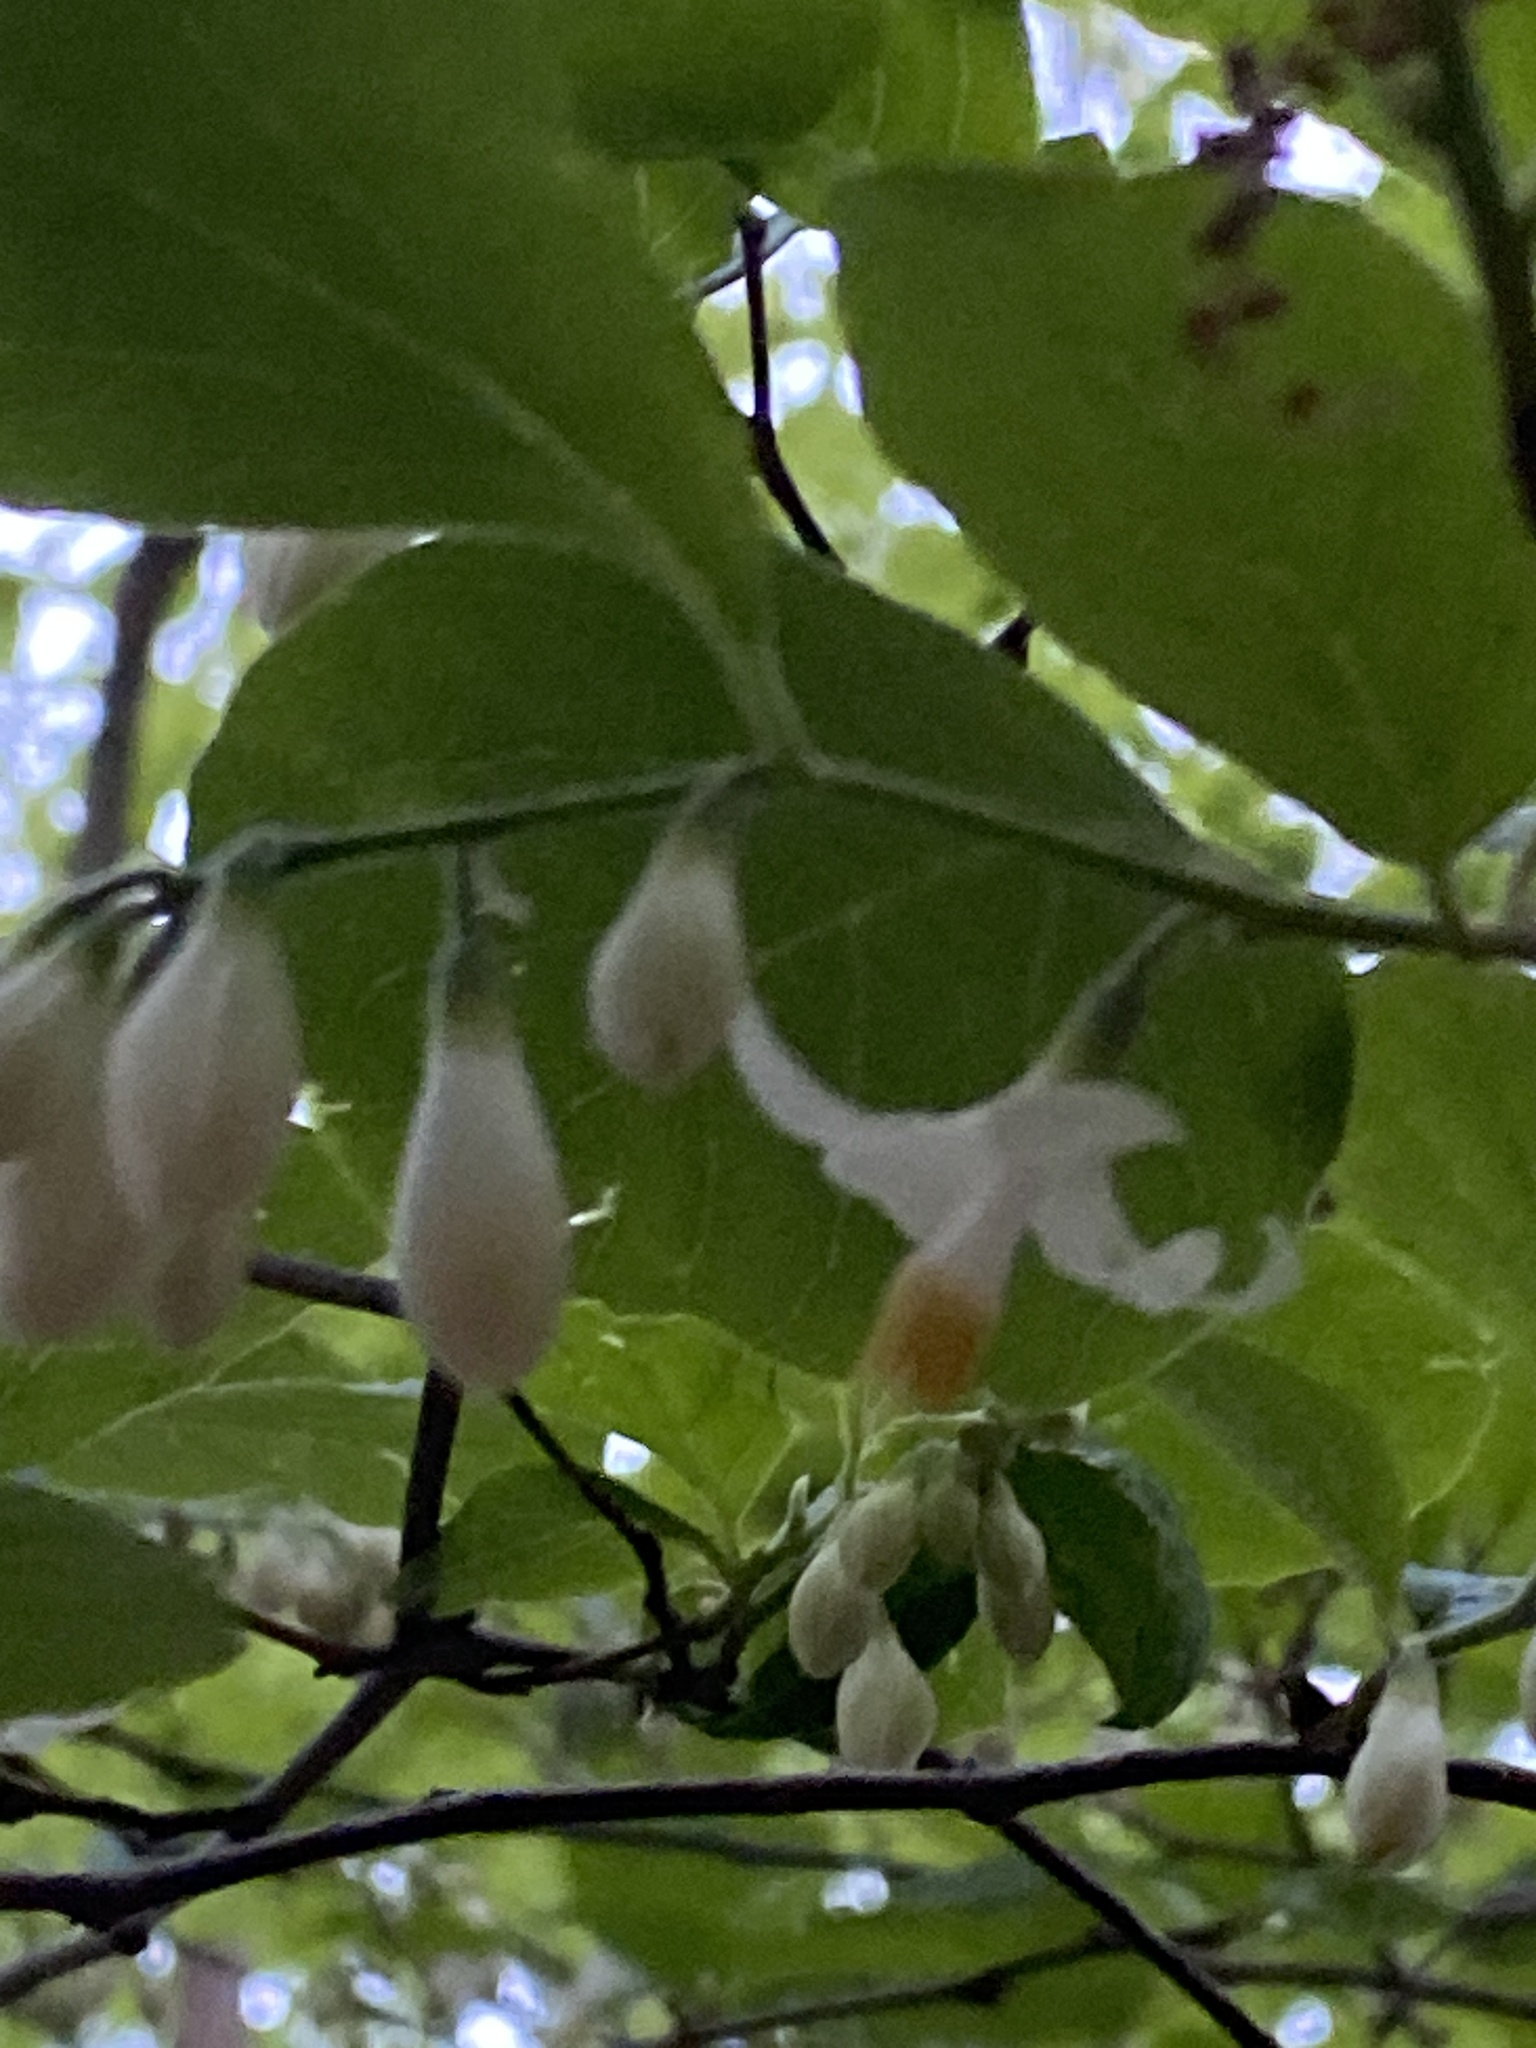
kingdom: Plantae
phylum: Tracheophyta
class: Magnoliopsida
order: Ericales
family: Styracaceae
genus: Styrax
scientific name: Styrax grandifolius
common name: Big-leaf snowbell
